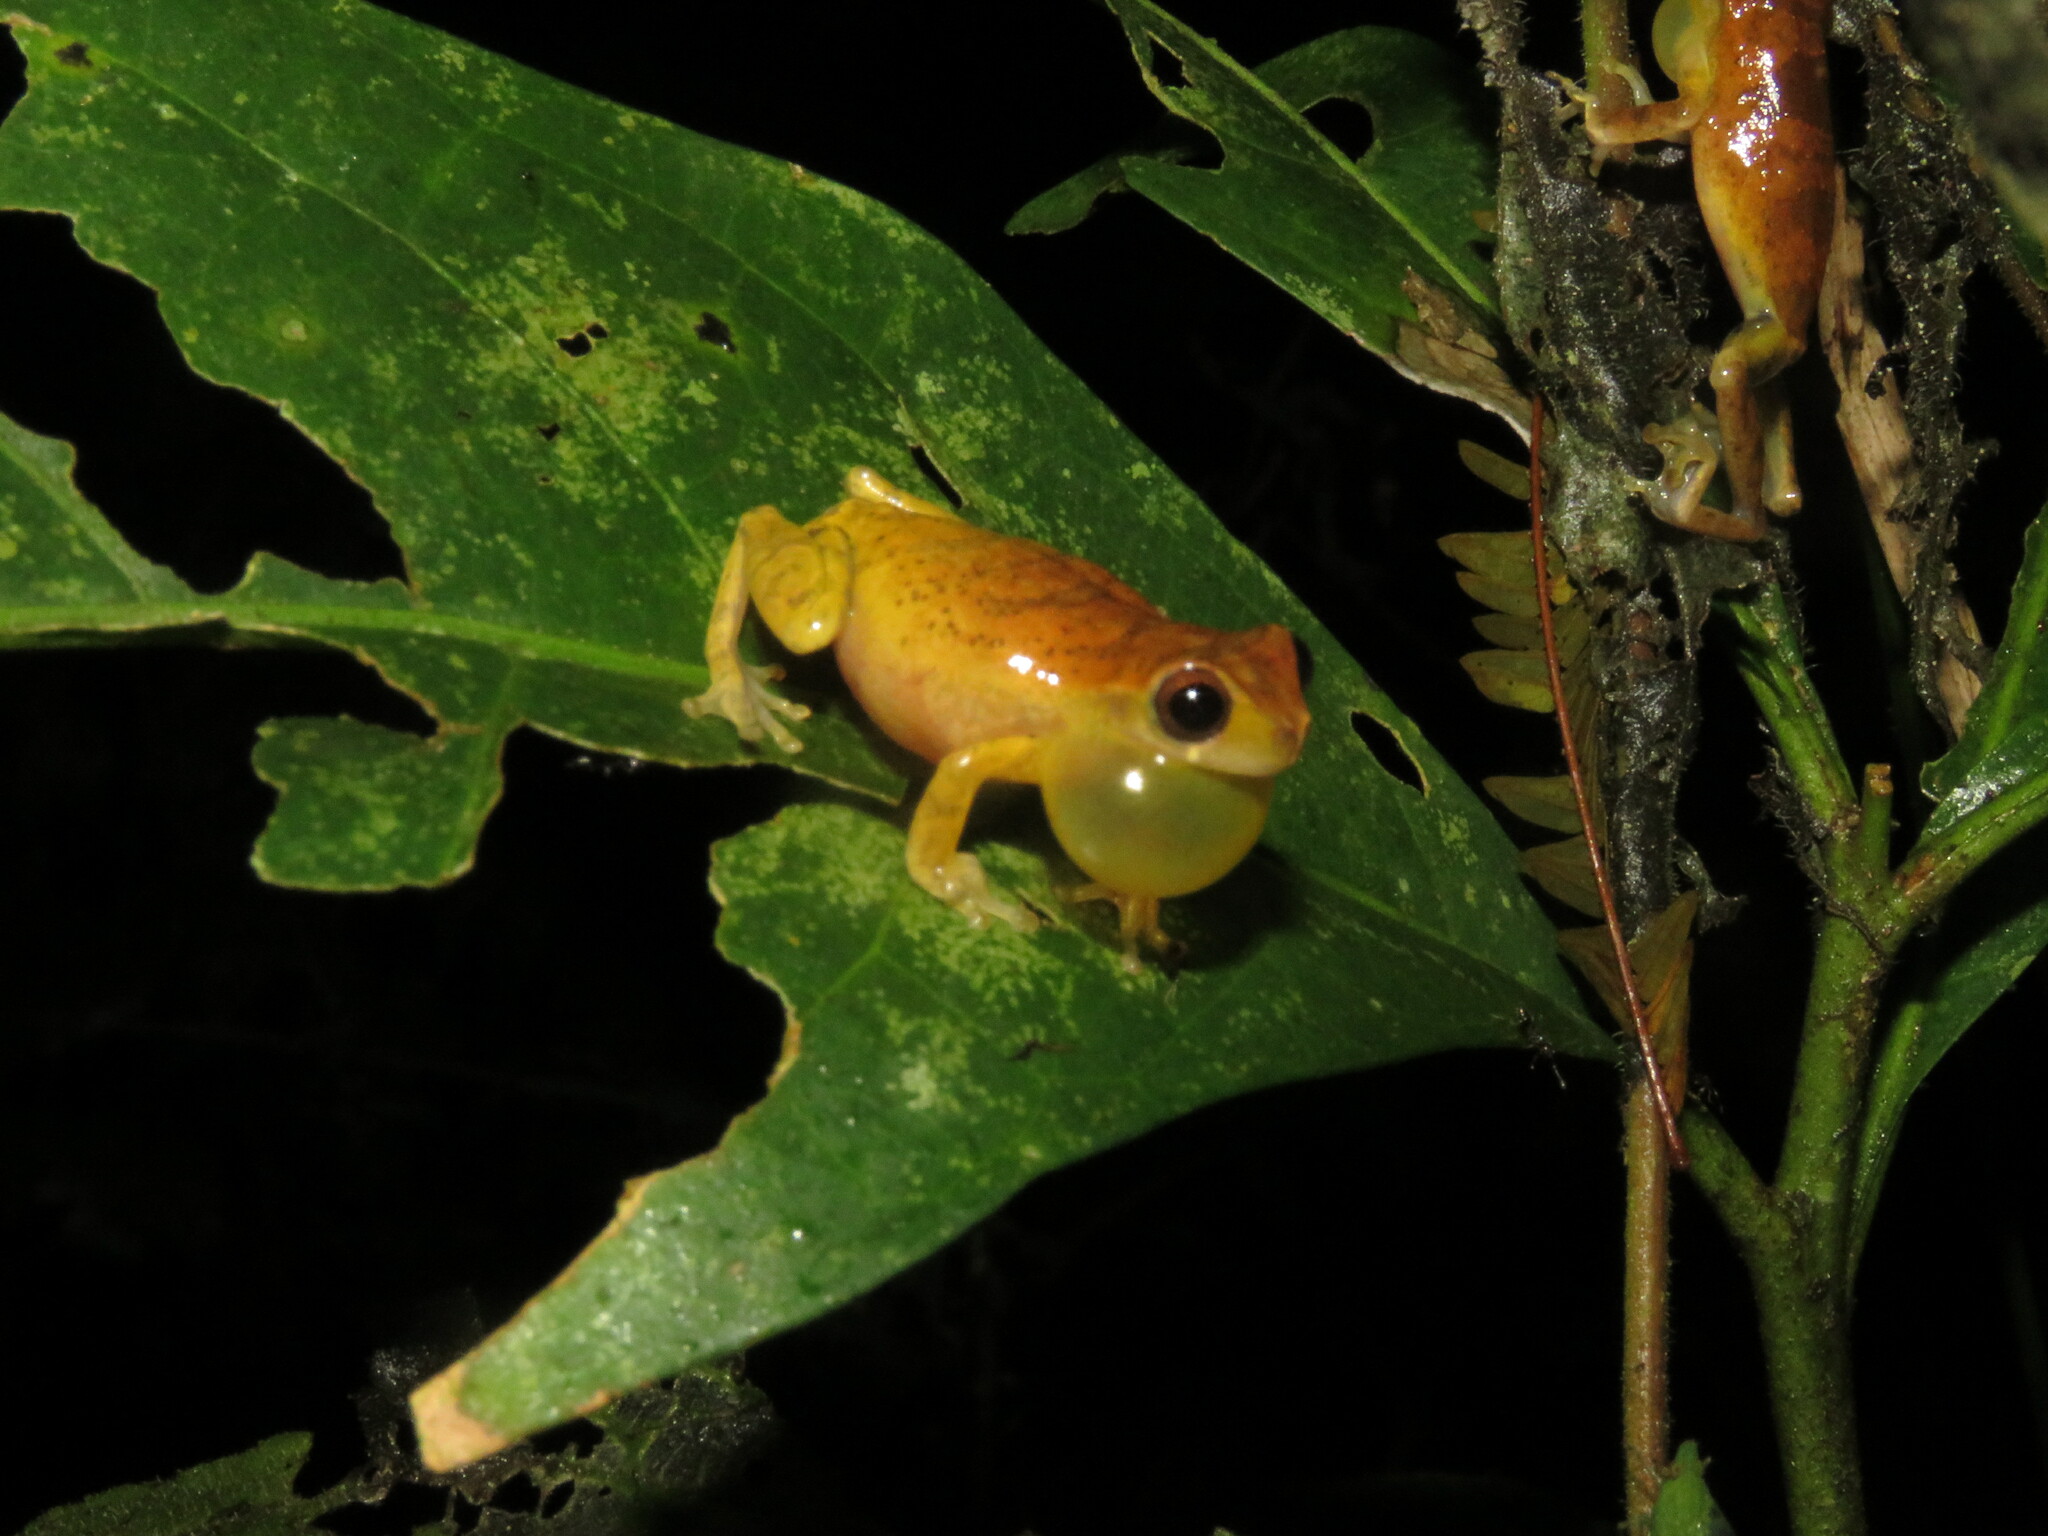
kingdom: Animalia
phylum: Chordata
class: Amphibia
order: Anura
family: Hylidae
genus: Dendropsophus
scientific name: Dendropsophus minutus
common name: Lesser treefrog
